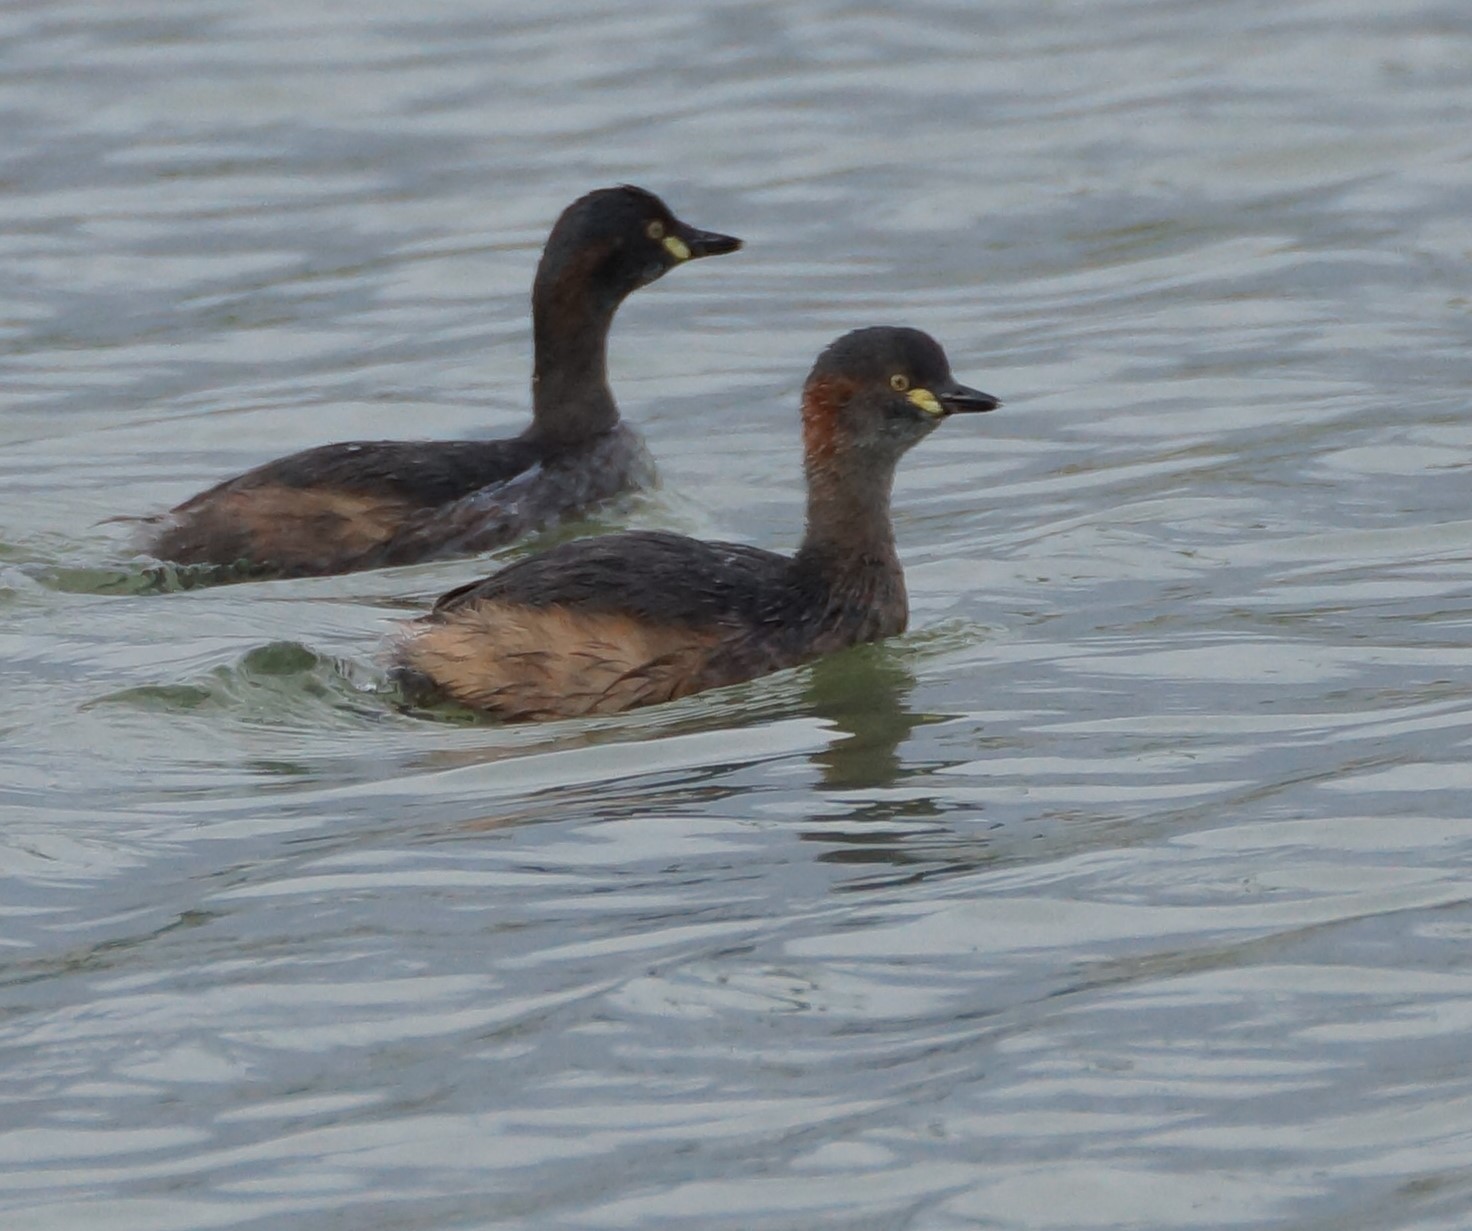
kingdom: Animalia
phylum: Chordata
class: Aves
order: Podicipediformes
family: Podicipedidae
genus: Tachybaptus
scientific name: Tachybaptus novaehollandiae
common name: Australasian grebe
